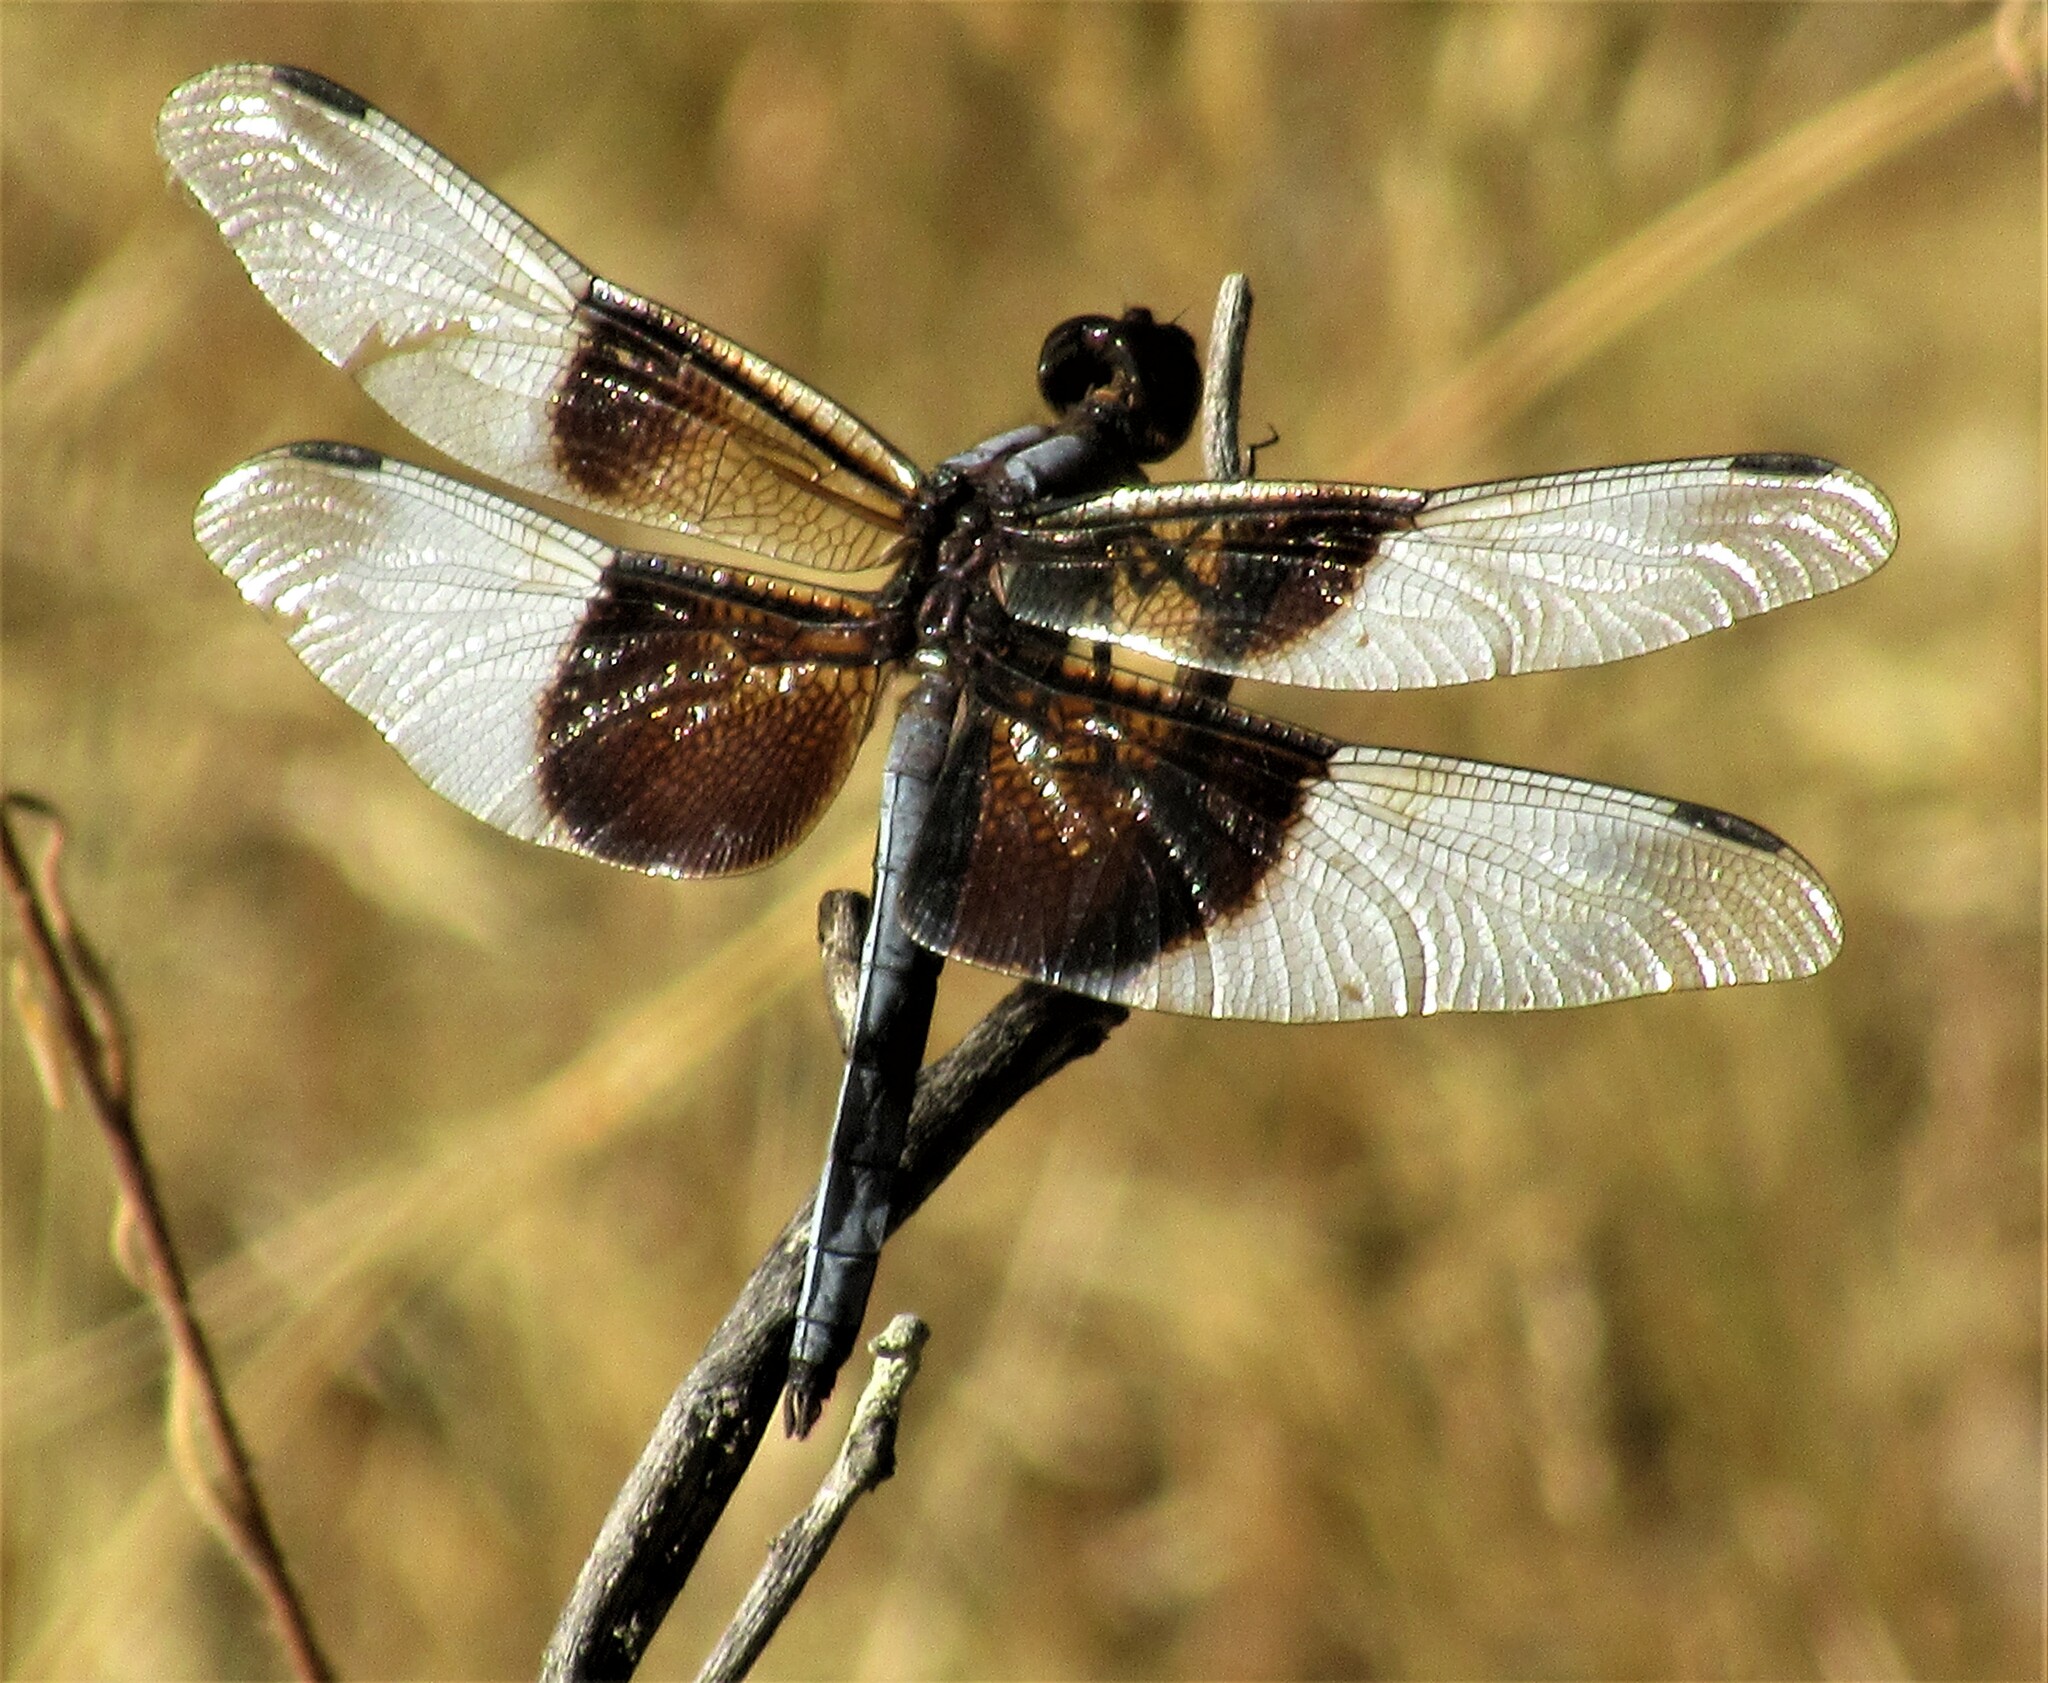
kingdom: Animalia
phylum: Arthropoda
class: Insecta
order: Odonata
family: Libellulidae
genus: Libellula
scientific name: Libellula luctuosa
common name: Widow skimmer
